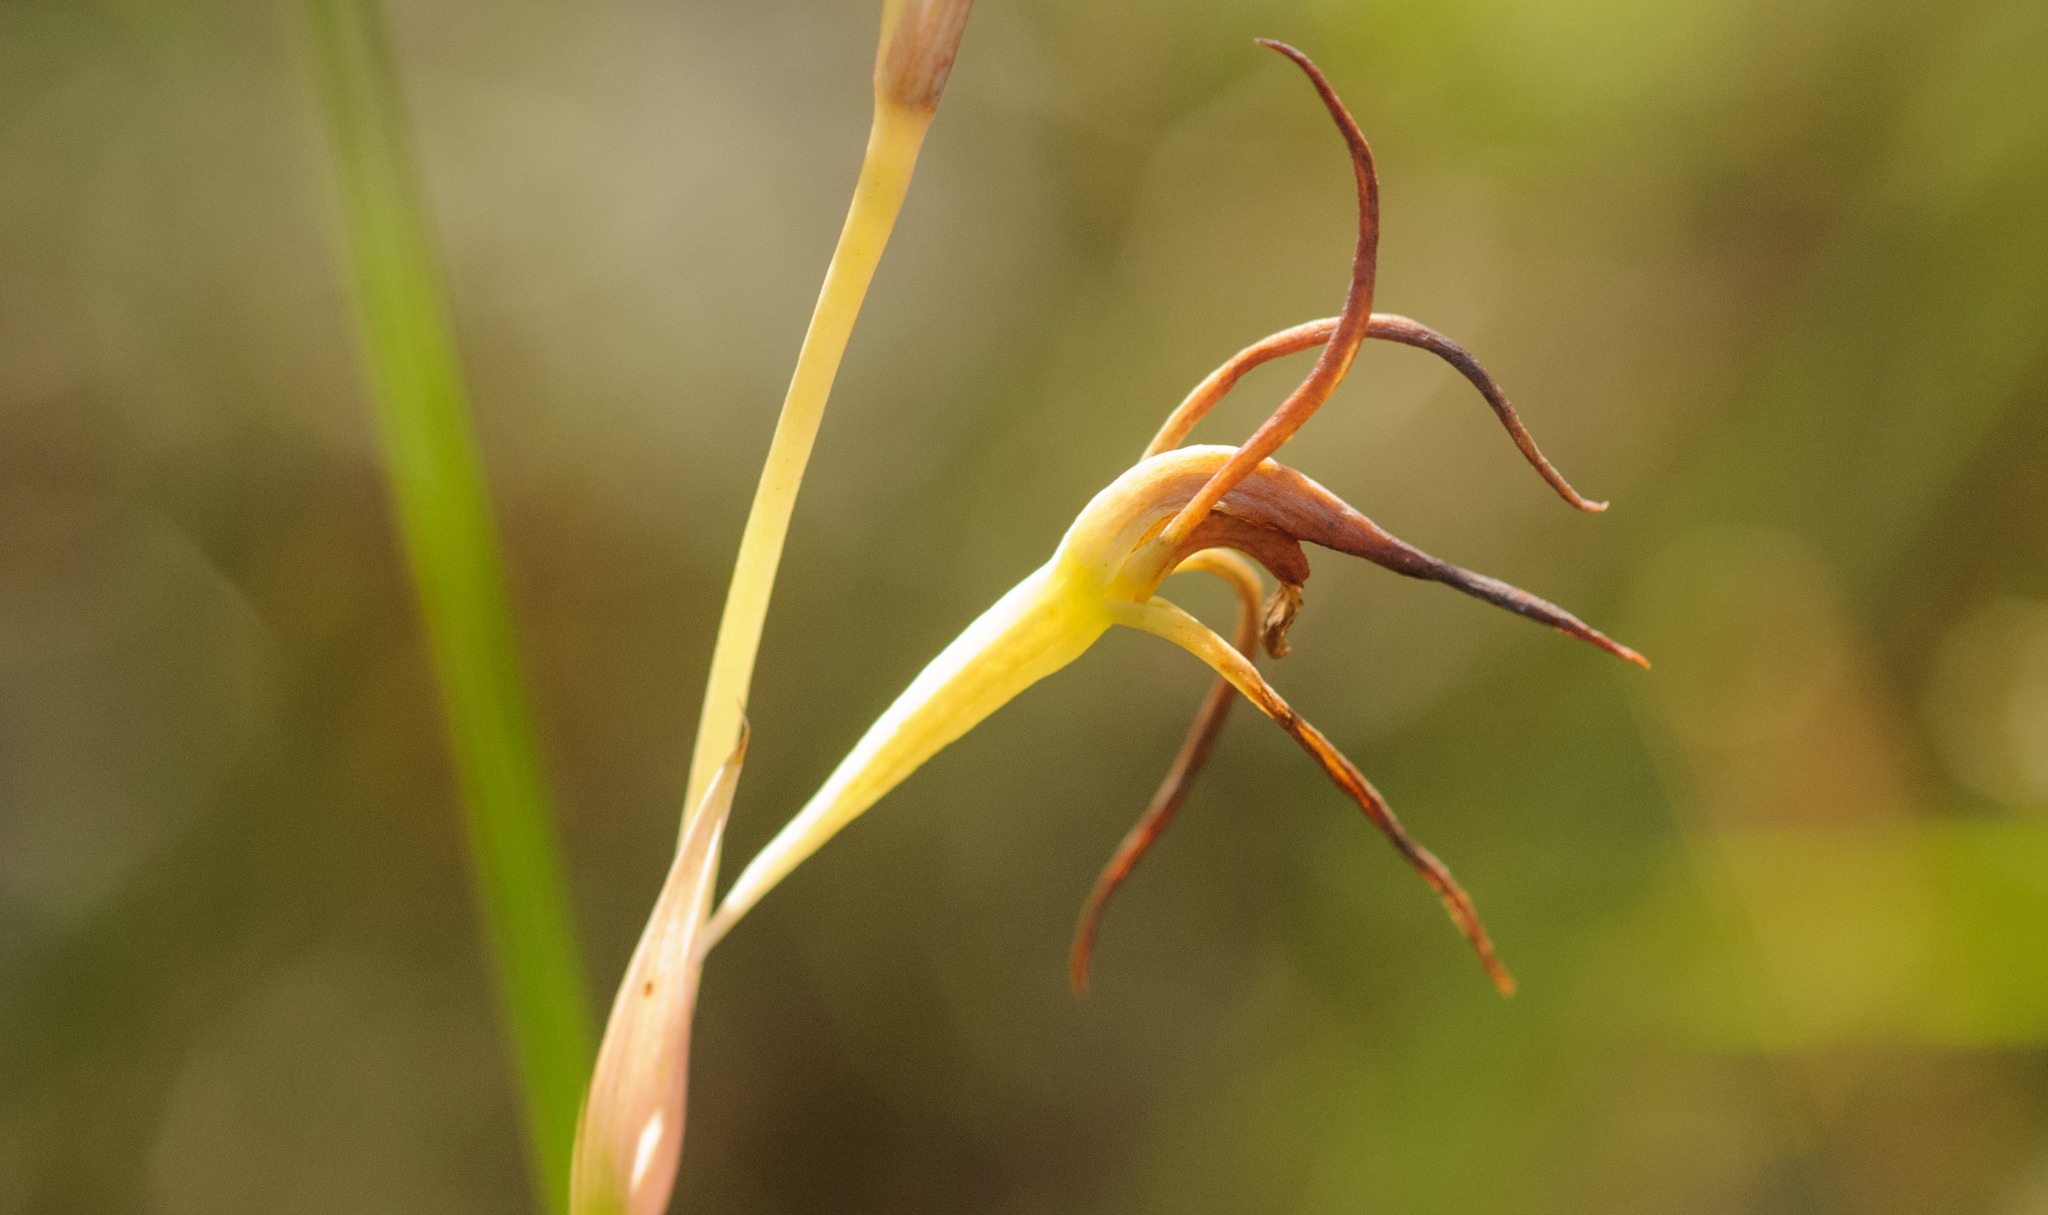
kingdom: Plantae
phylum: Tracheophyta
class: Liliopsida
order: Asparagales
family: Orchidaceae
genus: Lyperanthus
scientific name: Lyperanthus suaveolens
